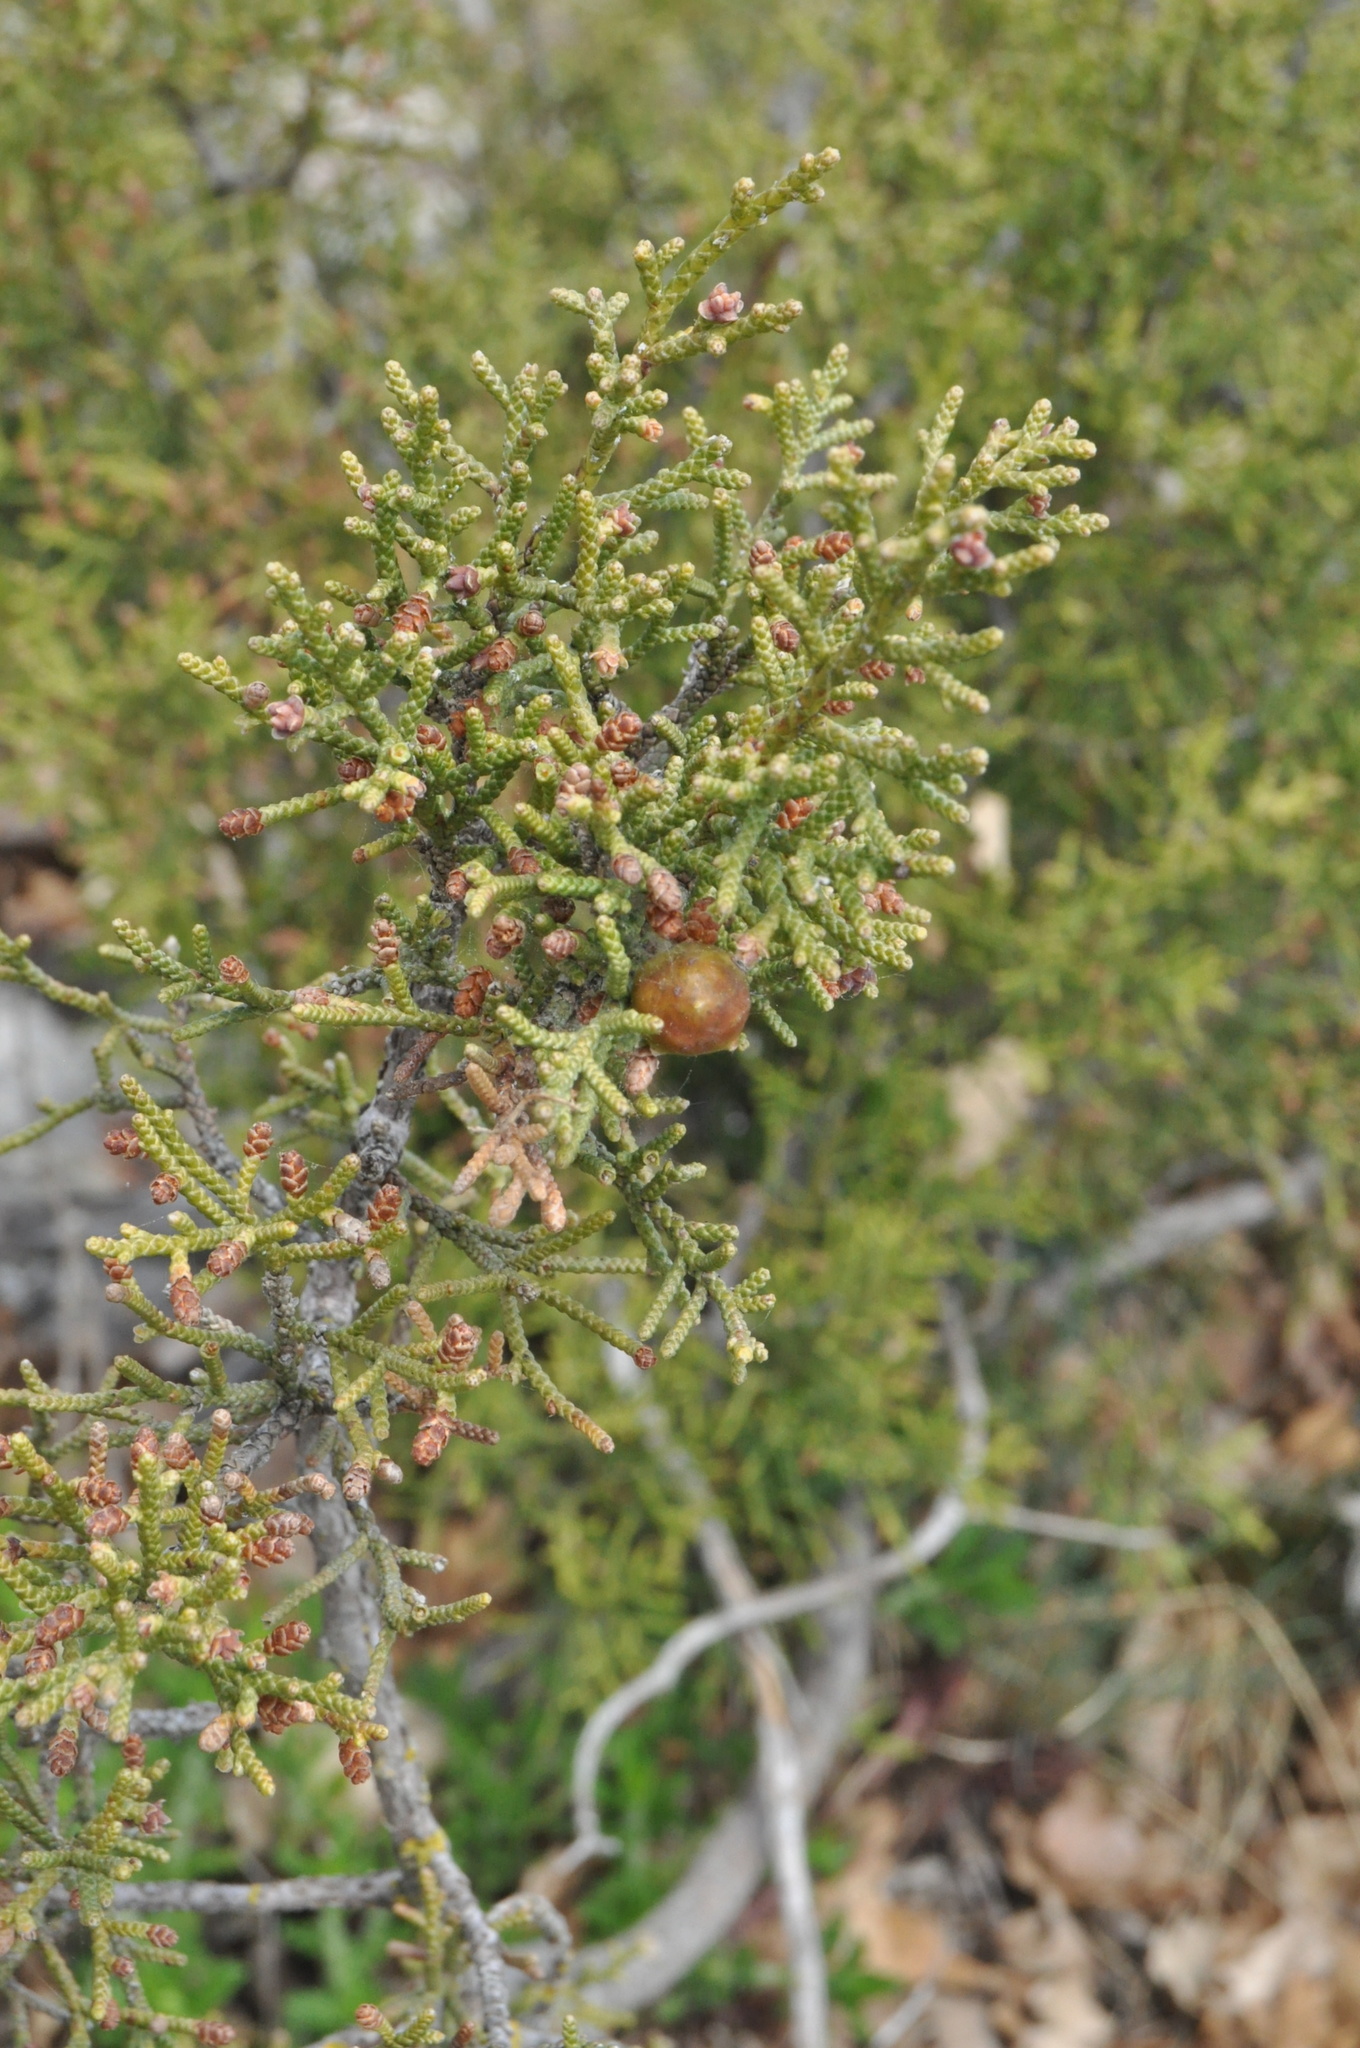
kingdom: Plantae
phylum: Tracheophyta
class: Pinopsida
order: Pinales
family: Cupressaceae
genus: Juniperus
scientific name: Juniperus phoenicea
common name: Phoenician juniper
